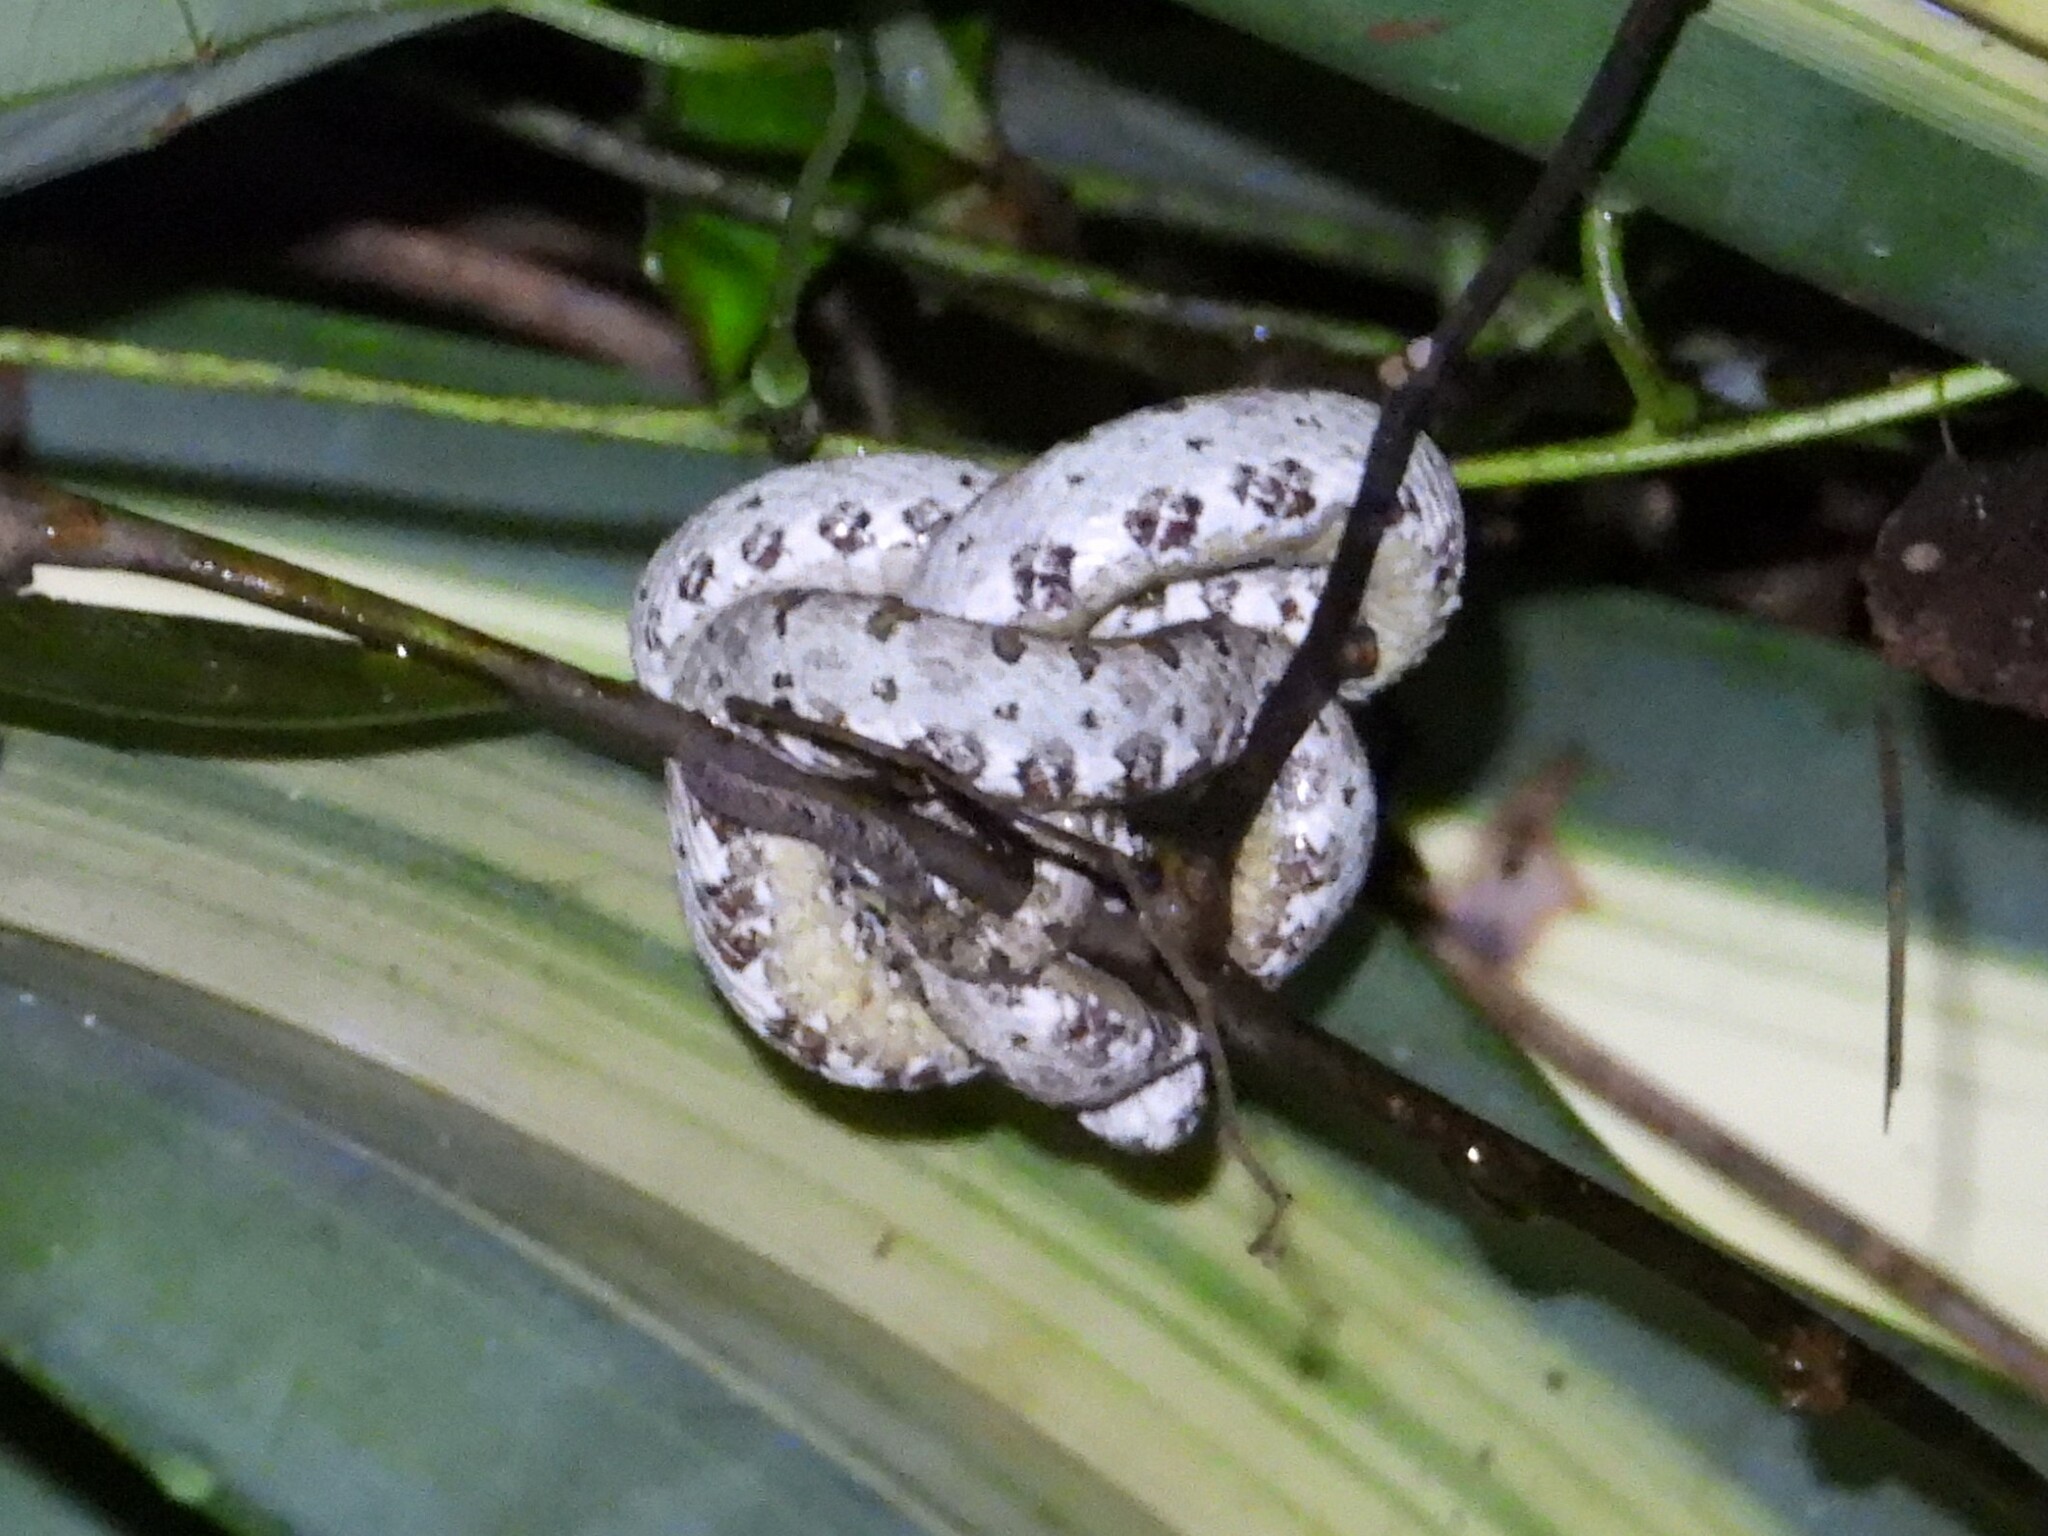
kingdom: Animalia
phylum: Chordata
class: Squamata
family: Viperidae
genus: Bothriechis
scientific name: Bothriechis schlegelii
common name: Eyelash viper
